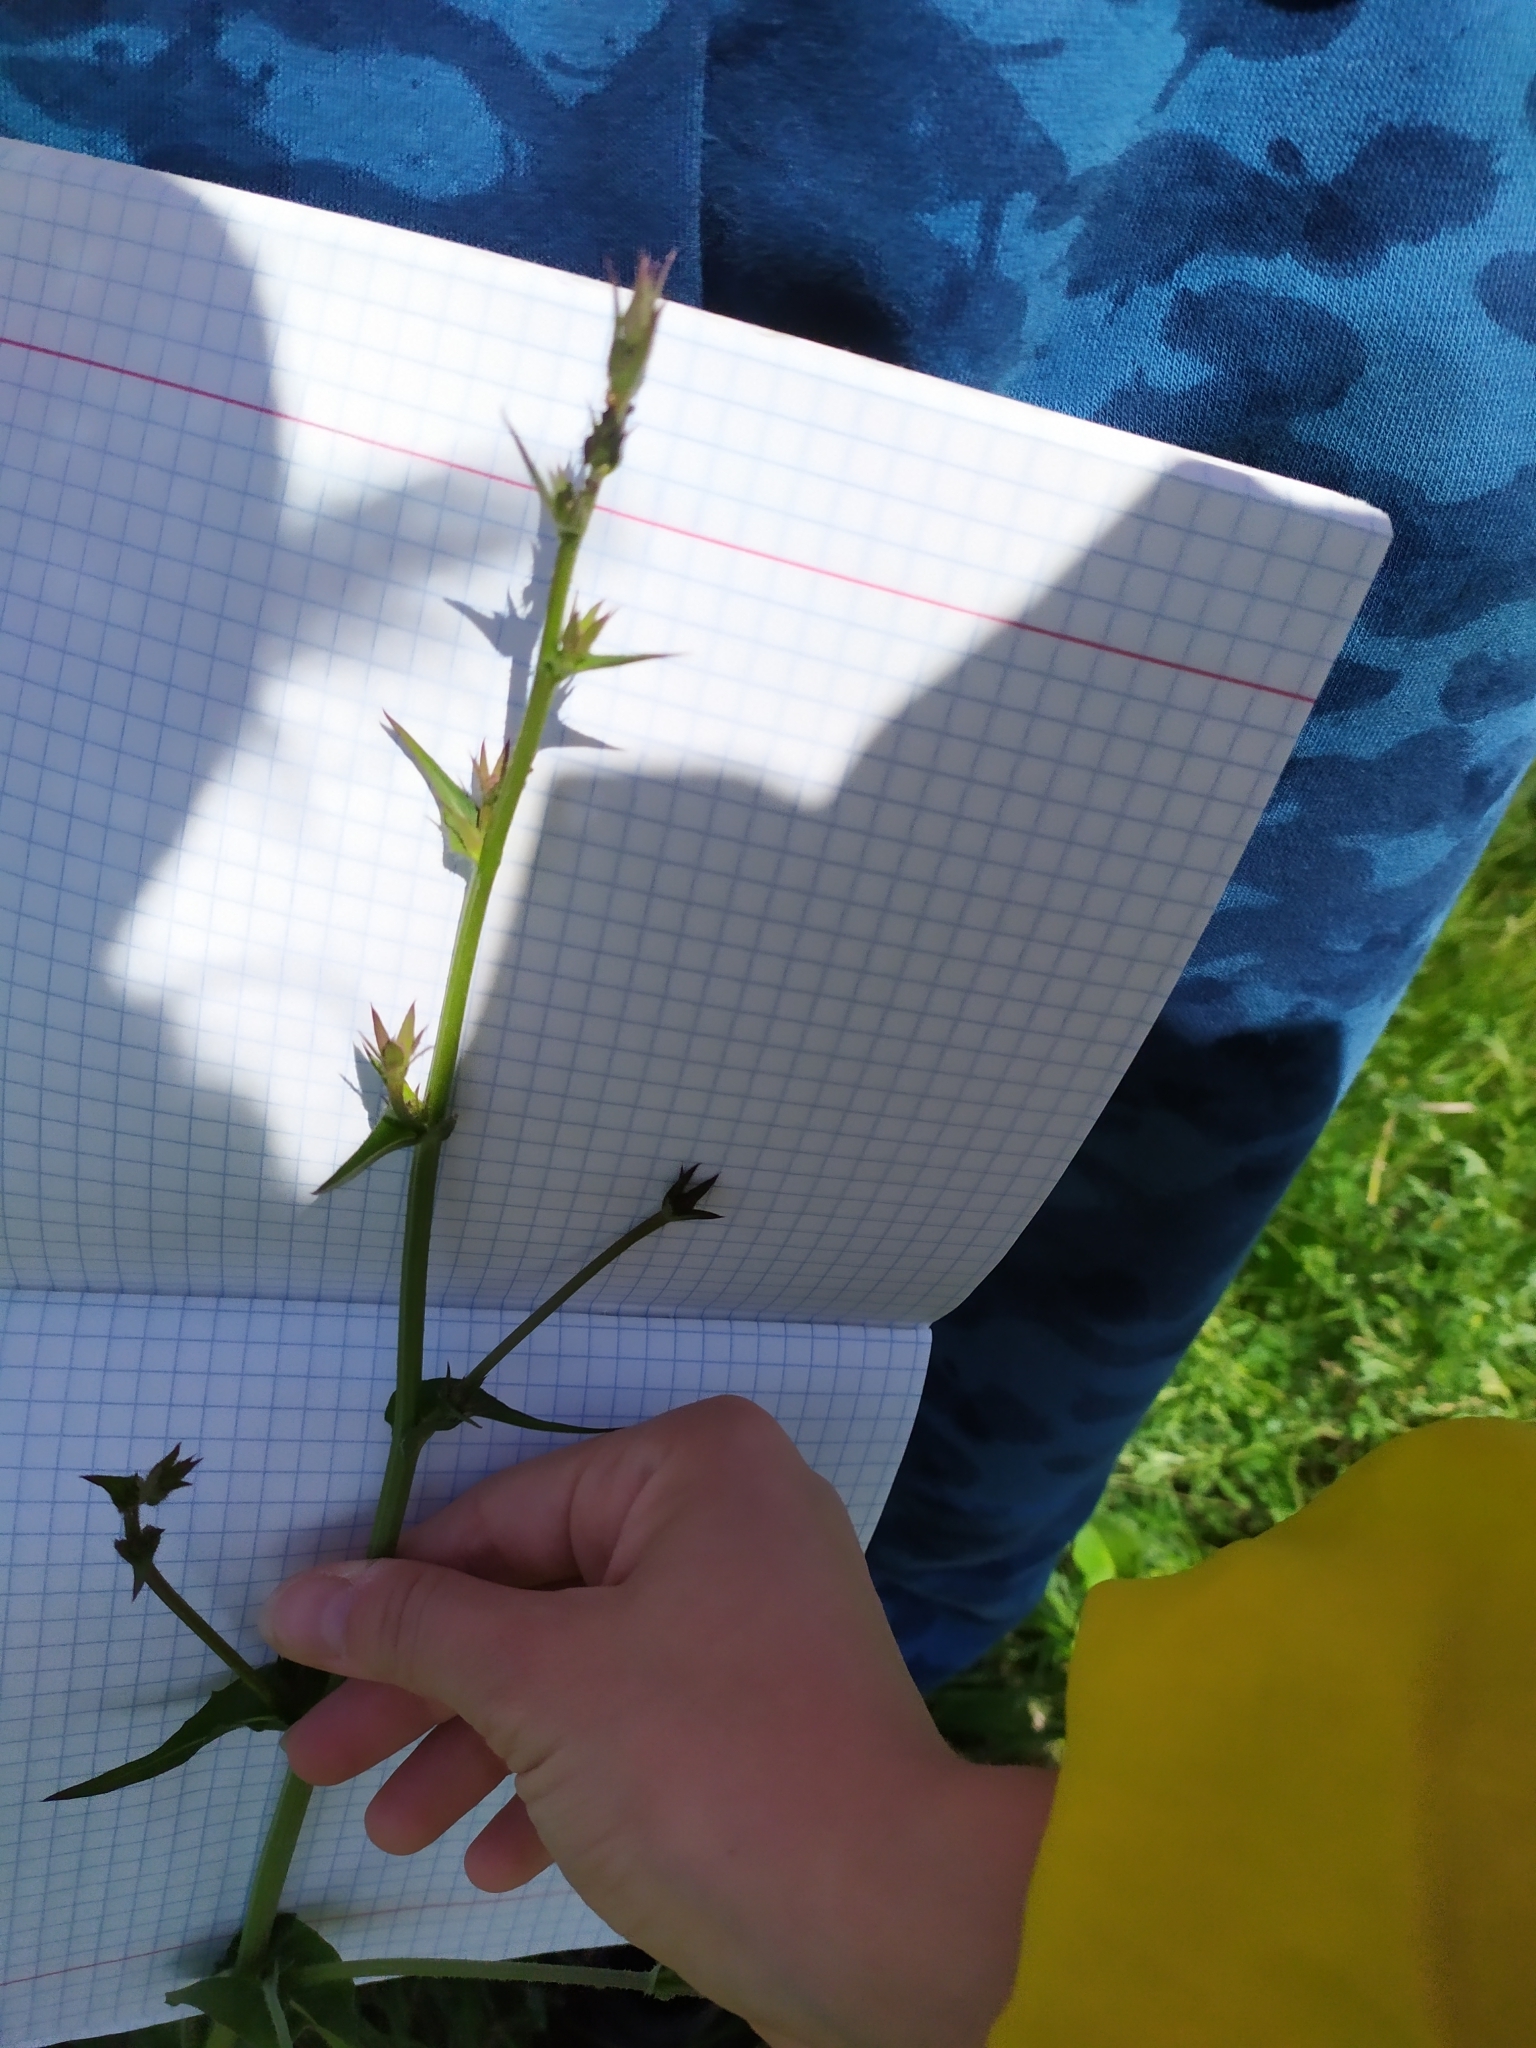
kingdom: Plantae
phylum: Tracheophyta
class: Magnoliopsida
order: Asterales
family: Asteraceae
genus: Cichorium
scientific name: Cichorium intybus
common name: Chicory
